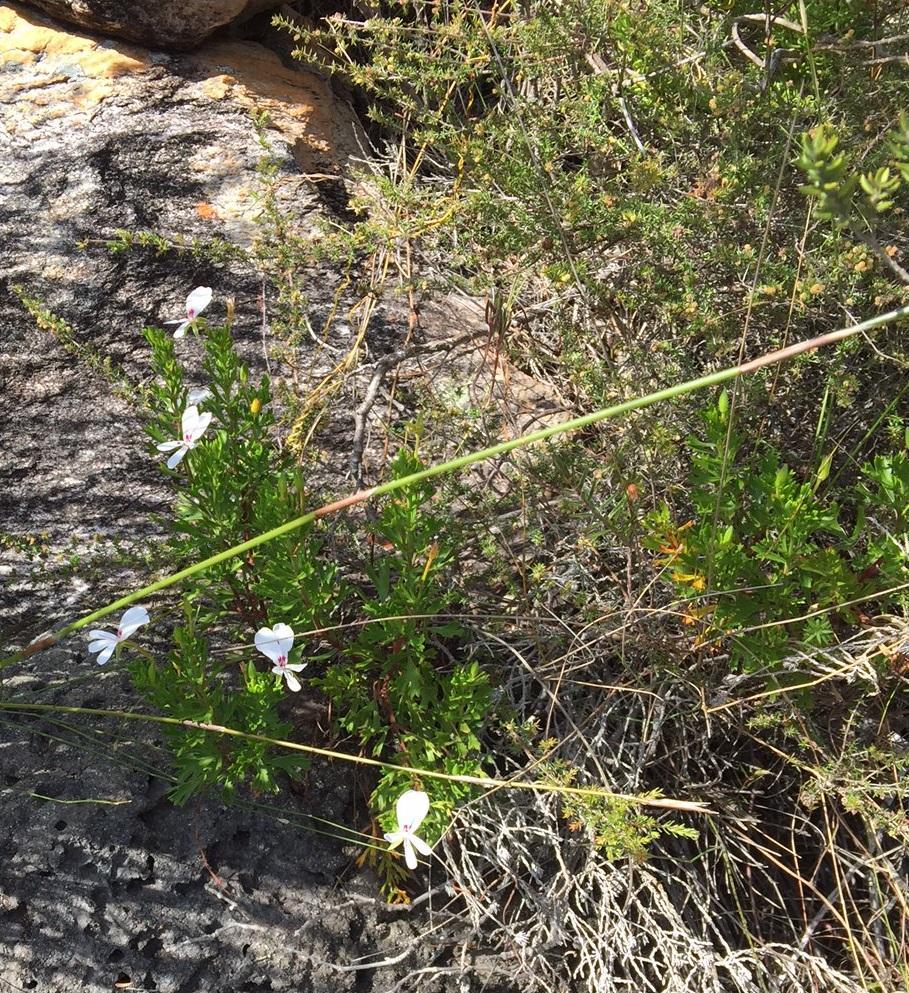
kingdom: Plantae
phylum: Tracheophyta
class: Magnoliopsida
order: Geraniales
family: Geraniaceae
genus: Pelargonium
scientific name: Pelargonium ternatum
